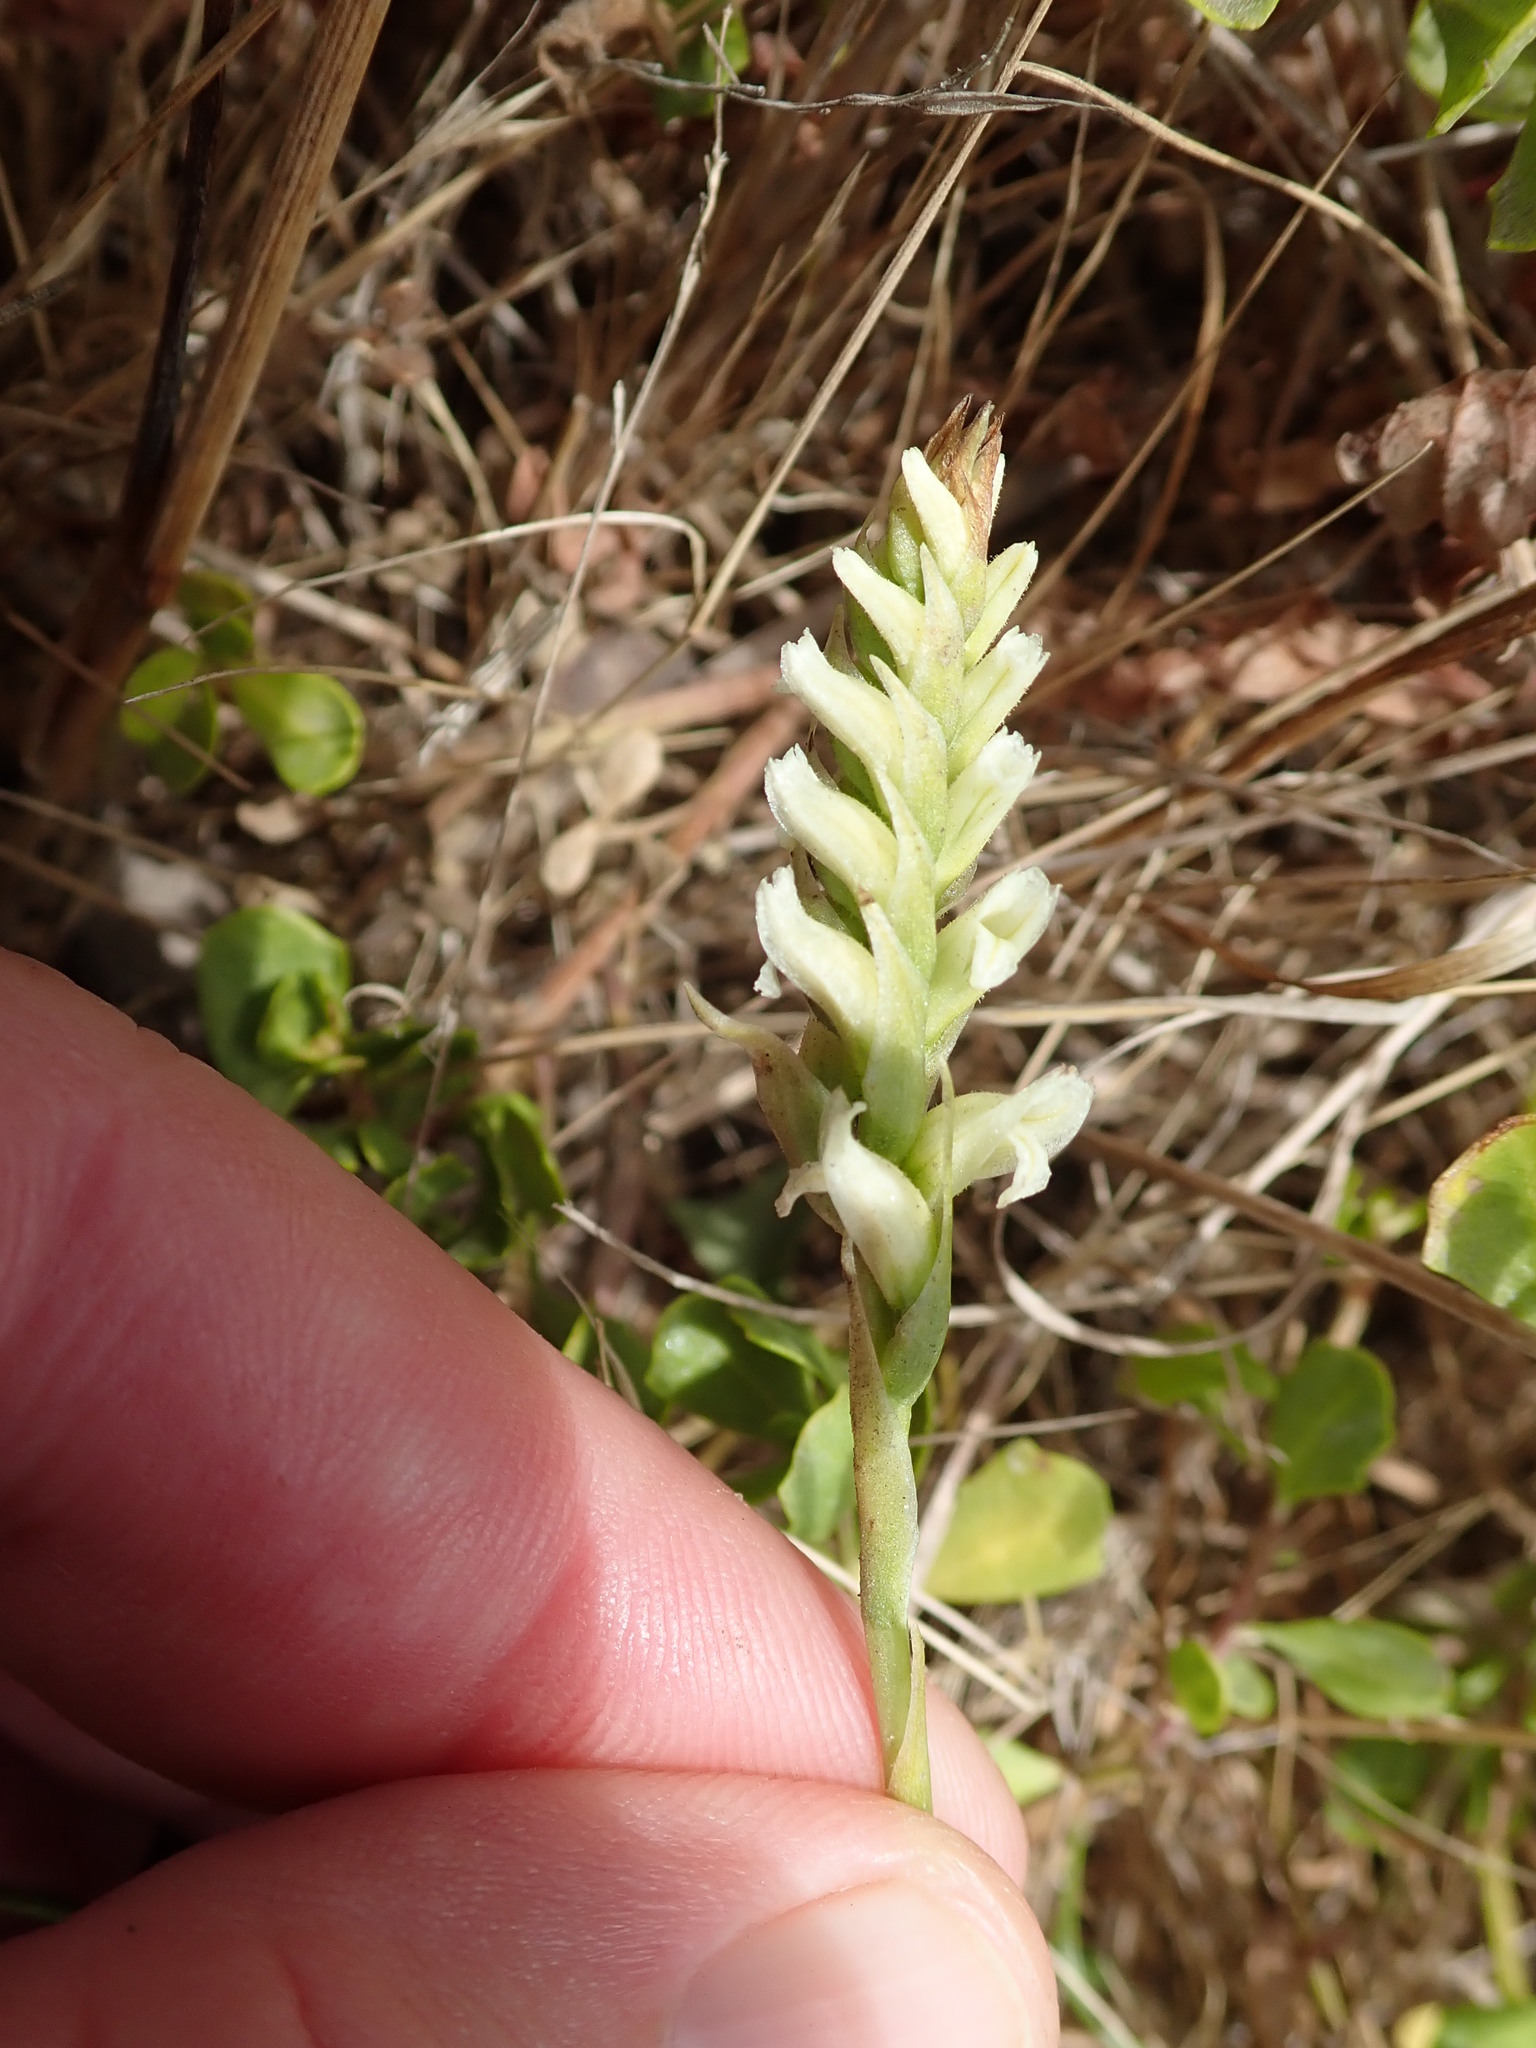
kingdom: Plantae
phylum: Tracheophyta
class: Liliopsida
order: Asparagales
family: Orchidaceae
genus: Spiranthes
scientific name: Spiranthes romanzoffiana
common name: Irish lady's-tresses
